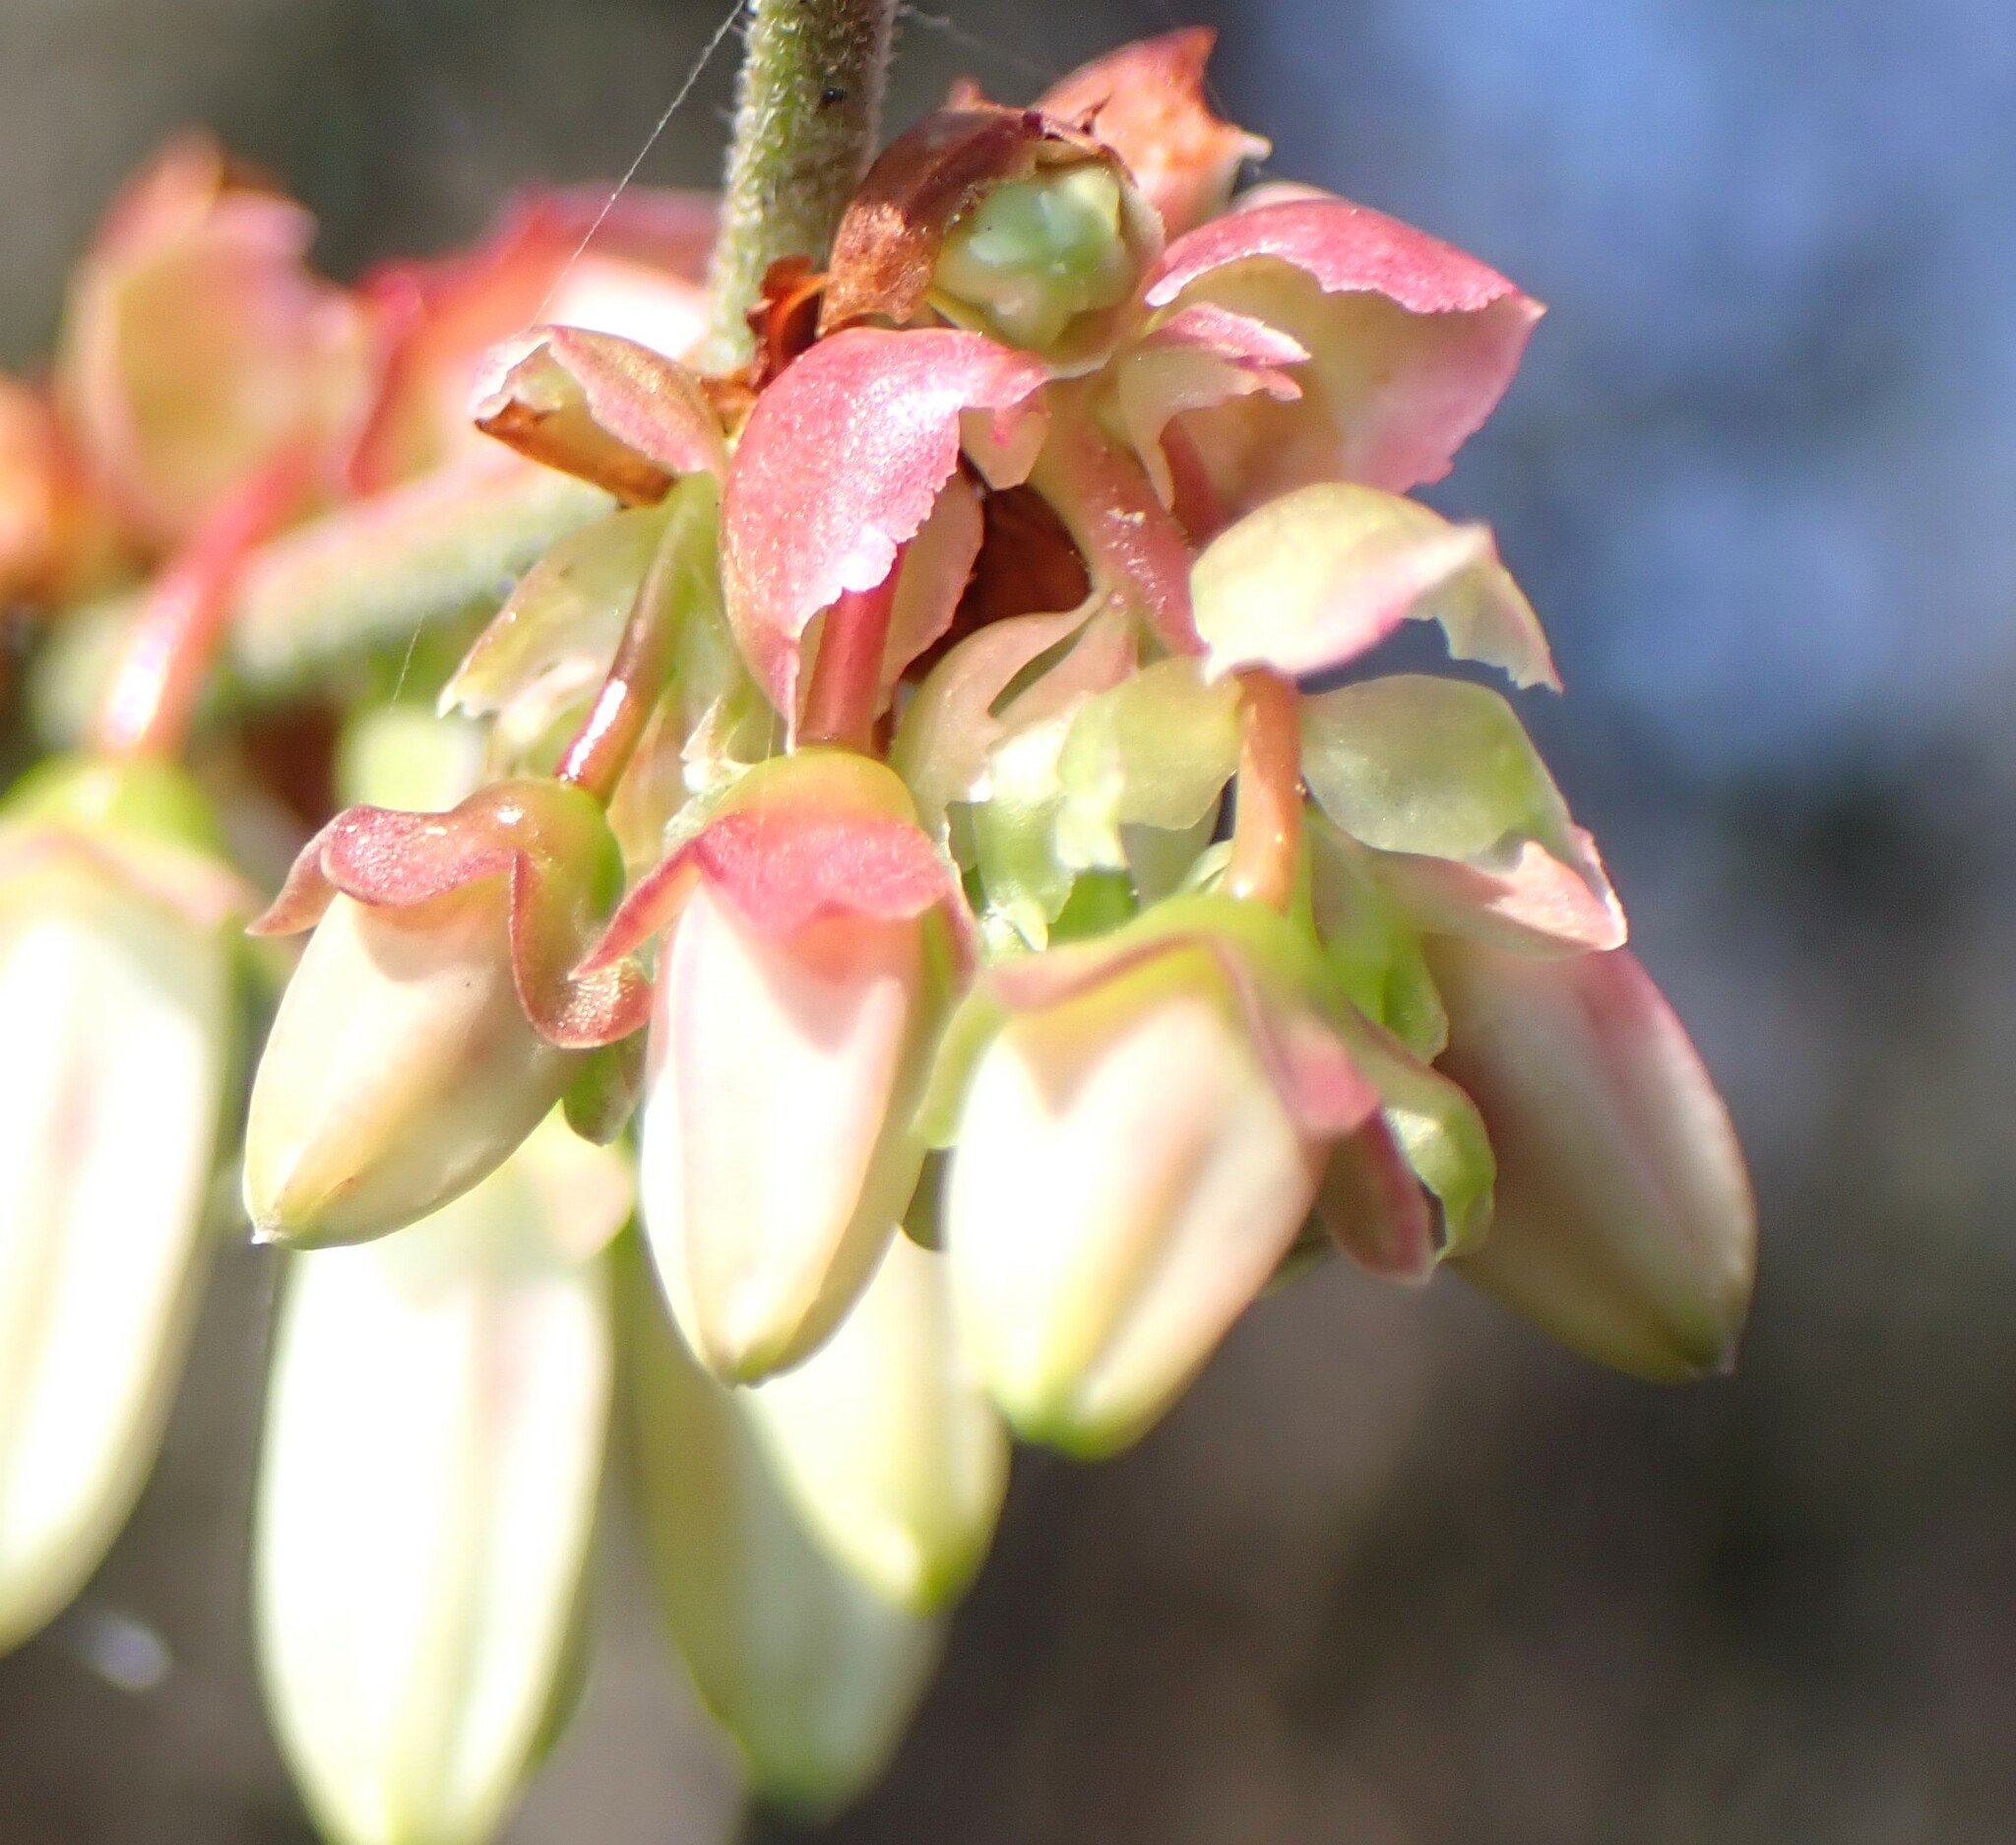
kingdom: Plantae
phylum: Tracheophyta
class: Magnoliopsida
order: Ericales
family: Ericaceae
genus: Vaccinium
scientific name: Vaccinium corymbosum
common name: Blueberry
